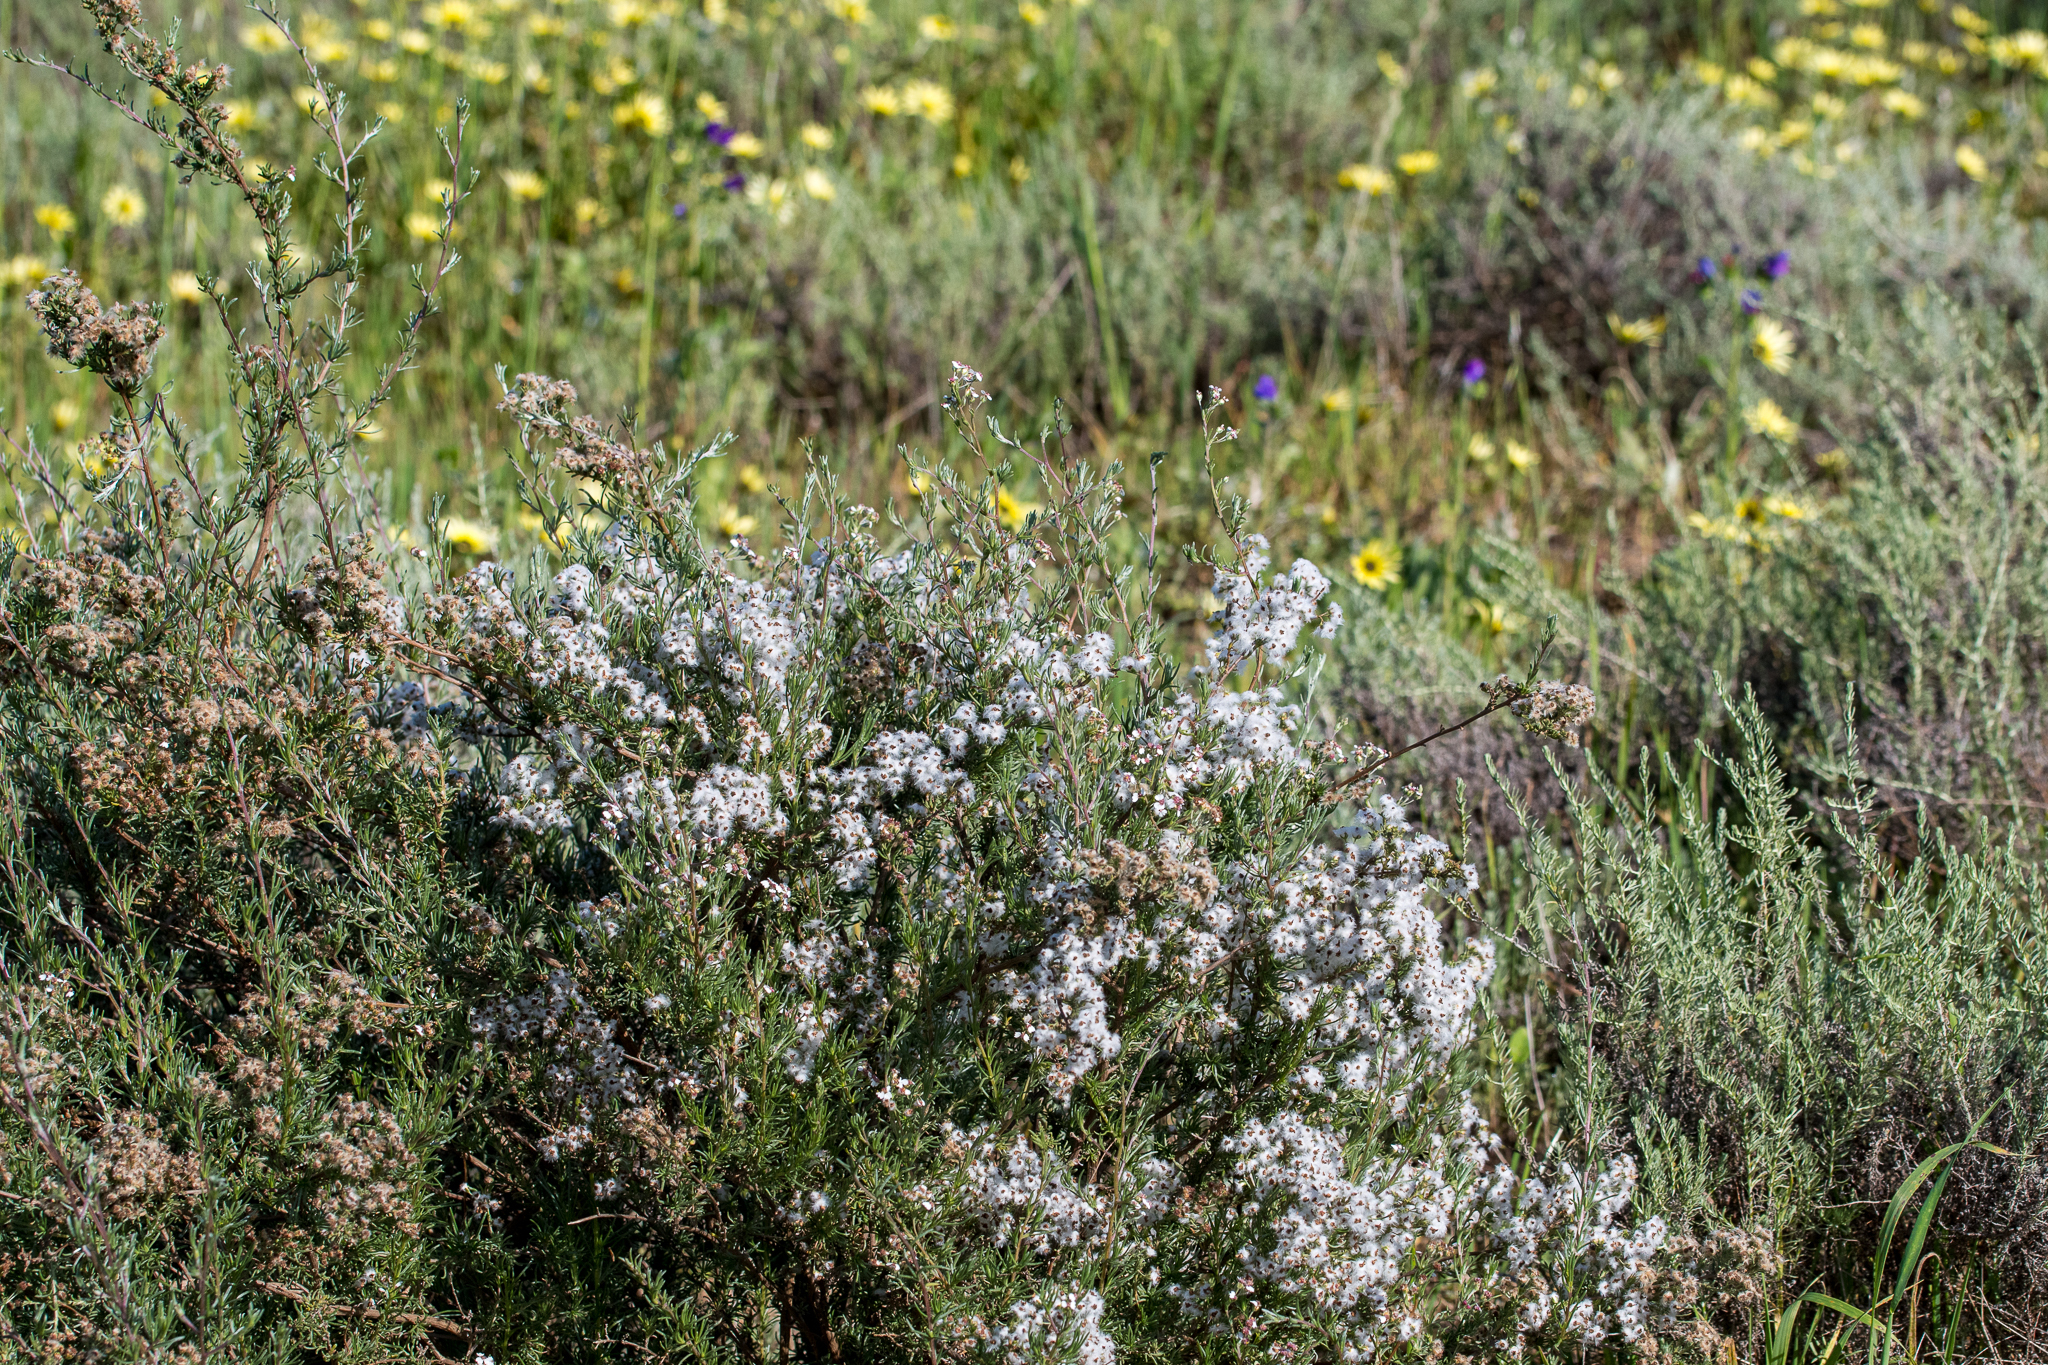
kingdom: Plantae
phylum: Tracheophyta
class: Magnoliopsida
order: Asterales
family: Asteraceae
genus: Eriocephalus
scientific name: Eriocephalus africanus
